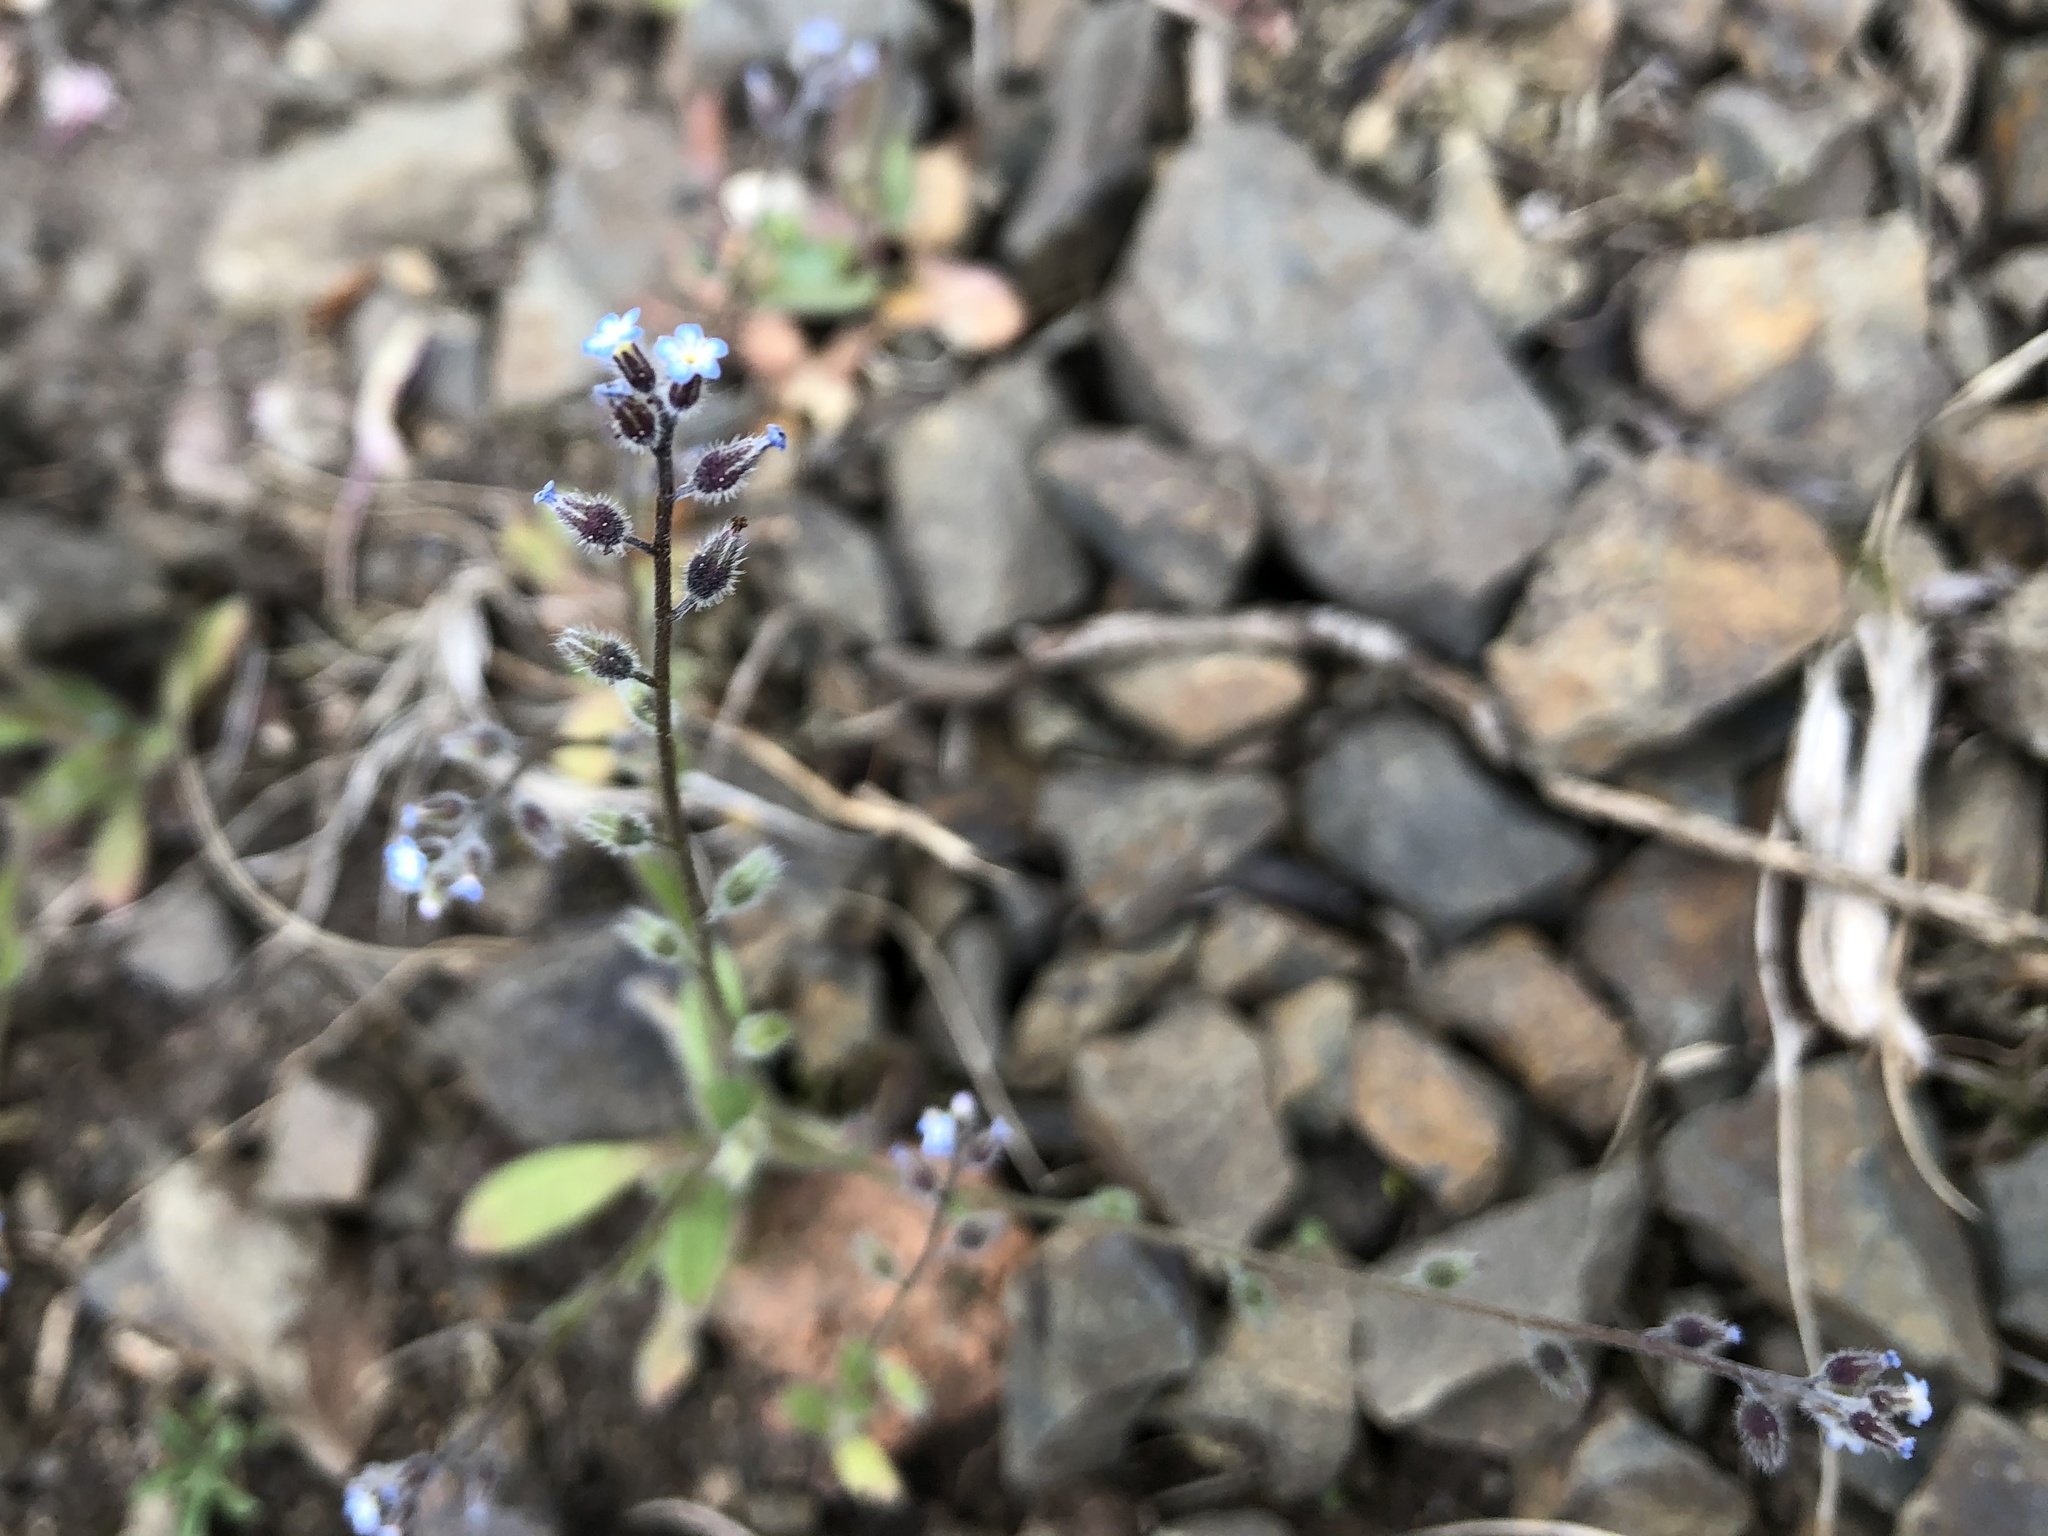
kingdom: Plantae
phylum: Tracheophyta
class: Magnoliopsida
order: Boraginales
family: Boraginaceae
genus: Myosotis
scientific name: Myosotis ramosissima
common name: Early forget-me-not
